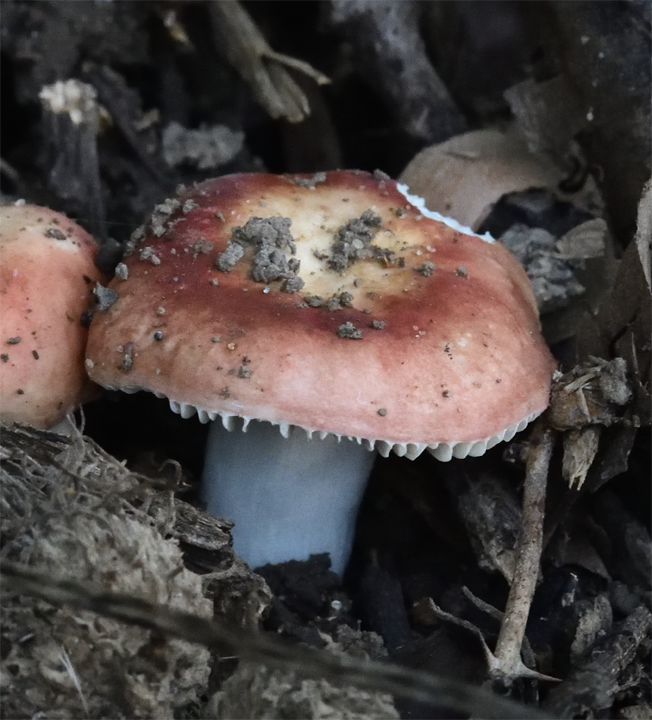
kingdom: Fungi
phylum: Basidiomycota
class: Agaricomycetes
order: Russulales
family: Russulaceae
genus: Russula
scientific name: Russula
